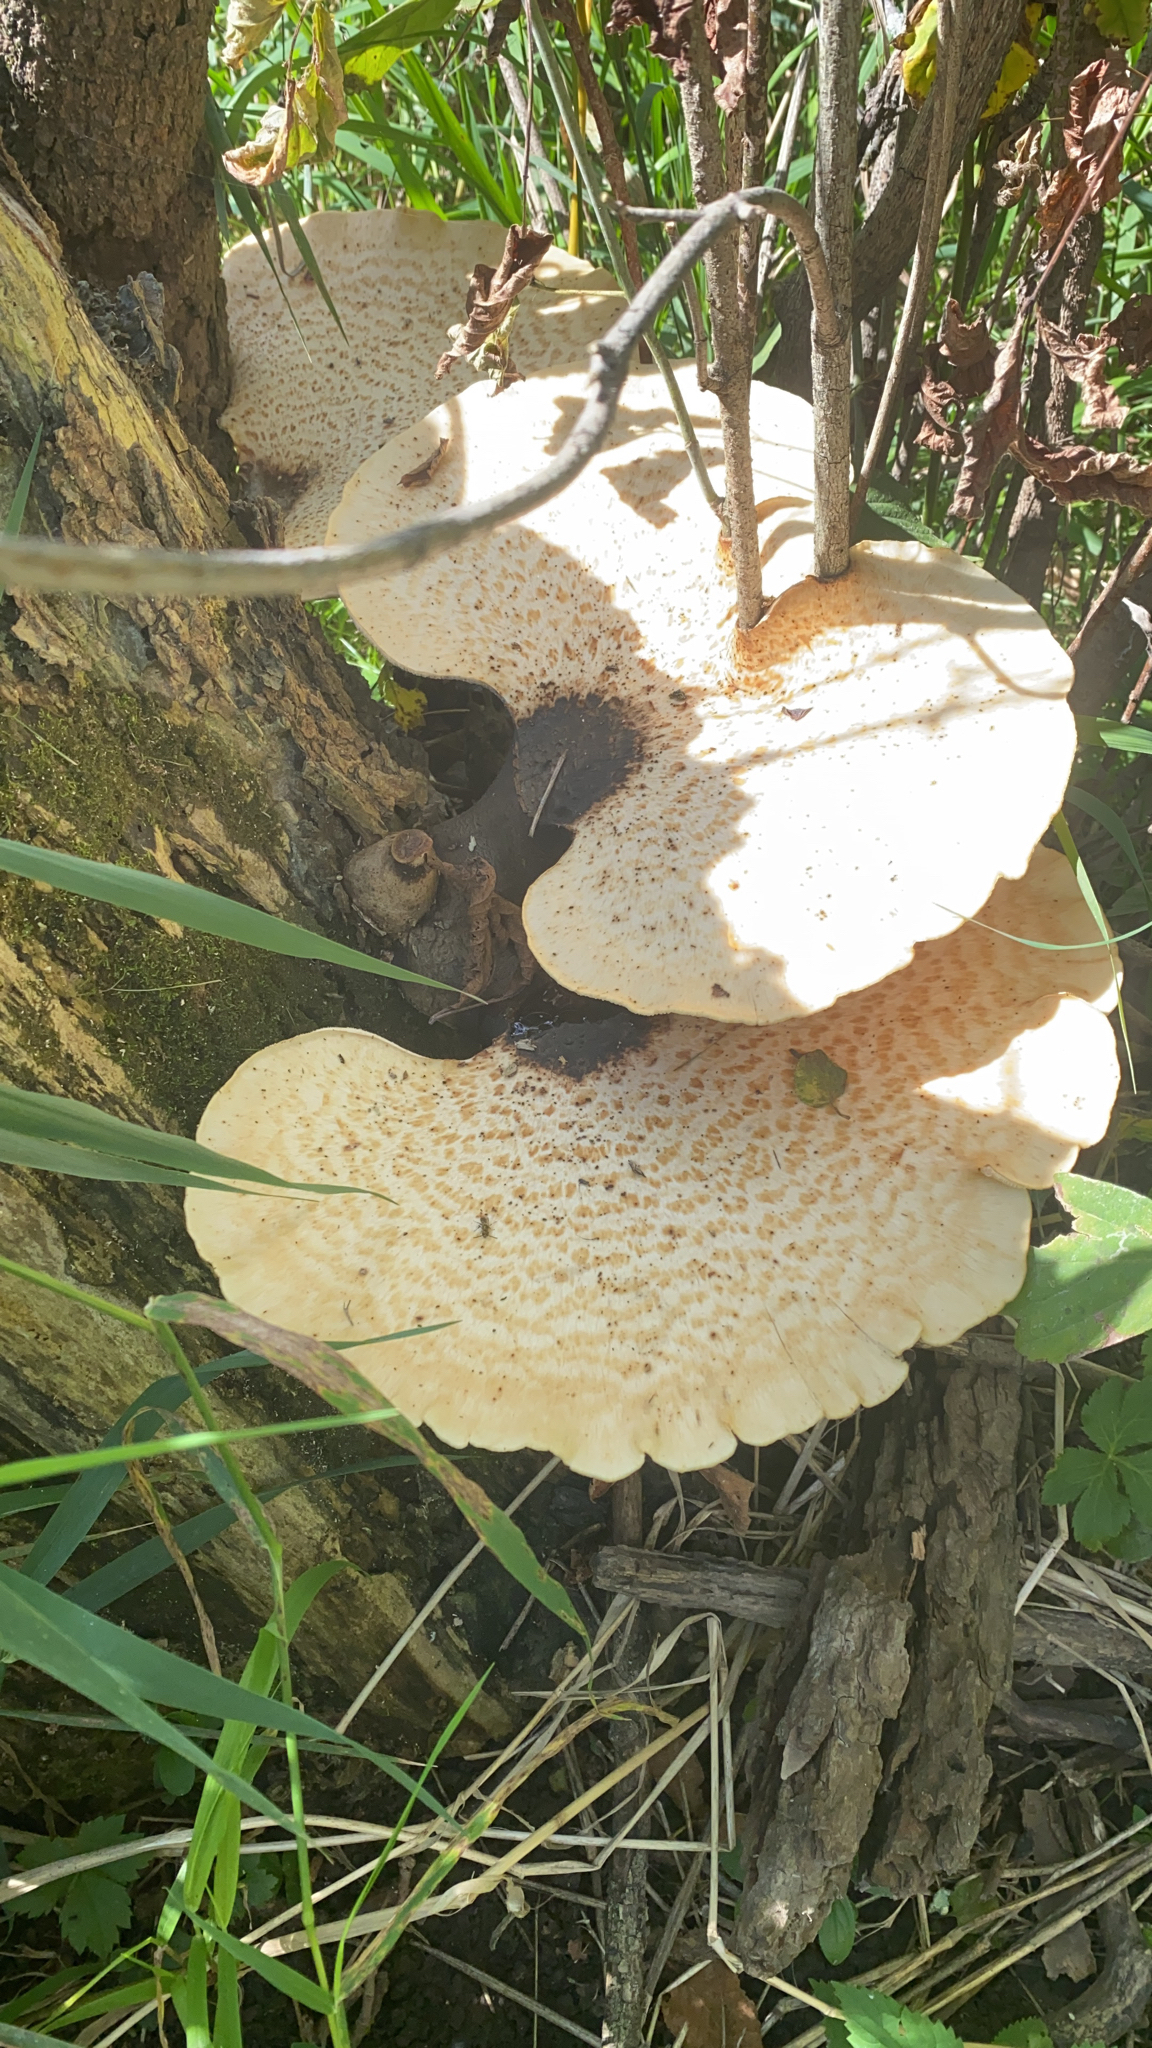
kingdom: Fungi
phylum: Basidiomycota
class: Agaricomycetes
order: Polyporales
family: Polyporaceae
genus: Cerioporus
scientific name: Cerioporus squamosus
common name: Dryad's saddle
